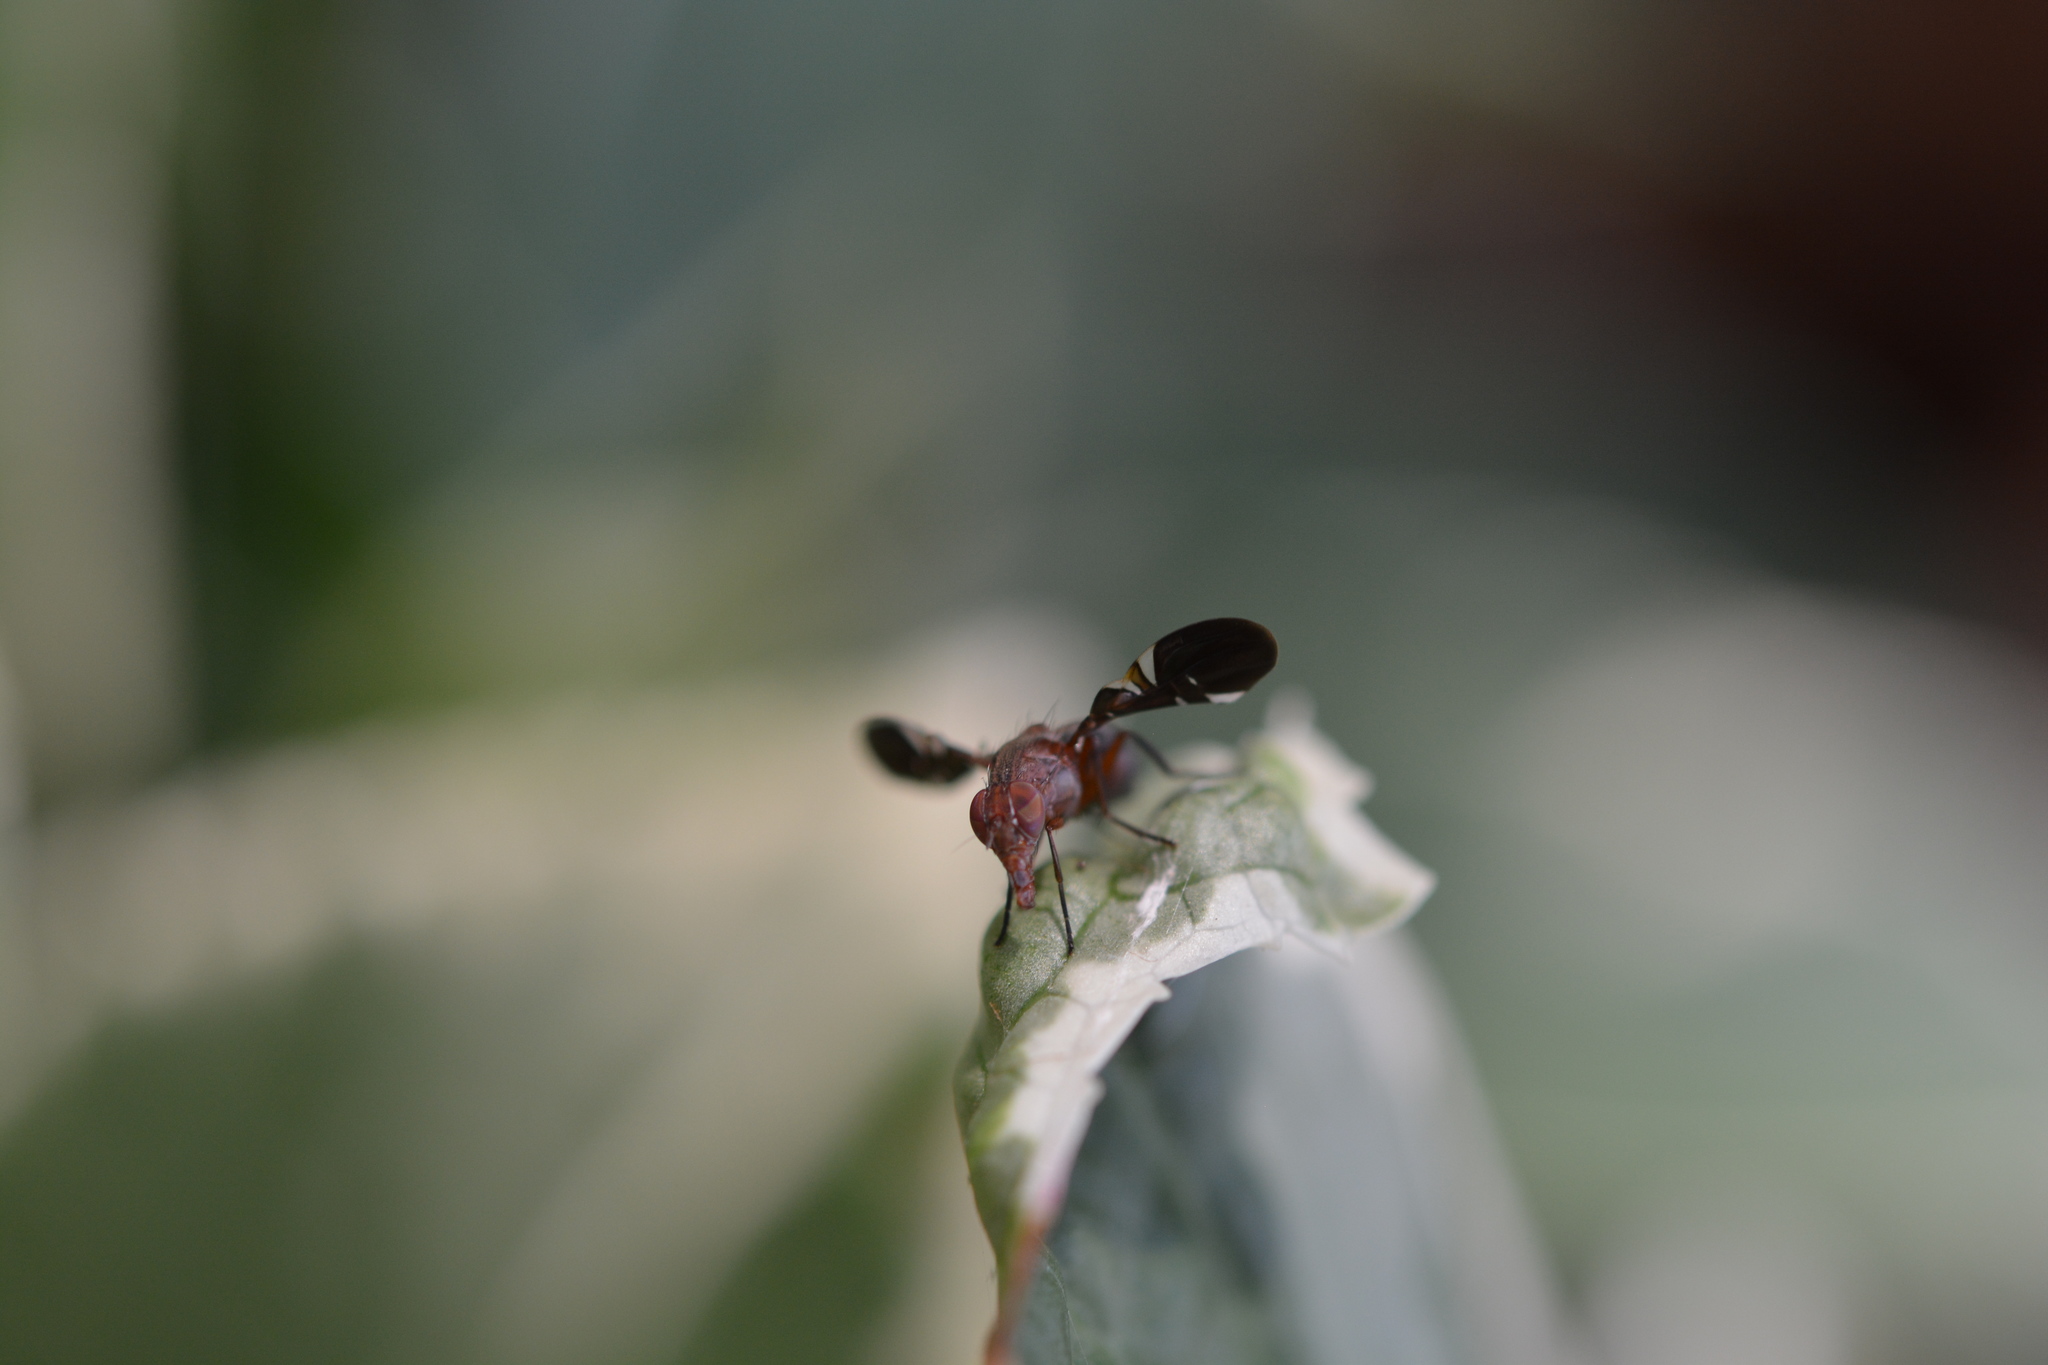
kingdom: Animalia
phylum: Arthropoda
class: Insecta
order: Diptera
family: Ulidiidae
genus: Delphinia
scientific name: Delphinia picta
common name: Common picture-winged fly
